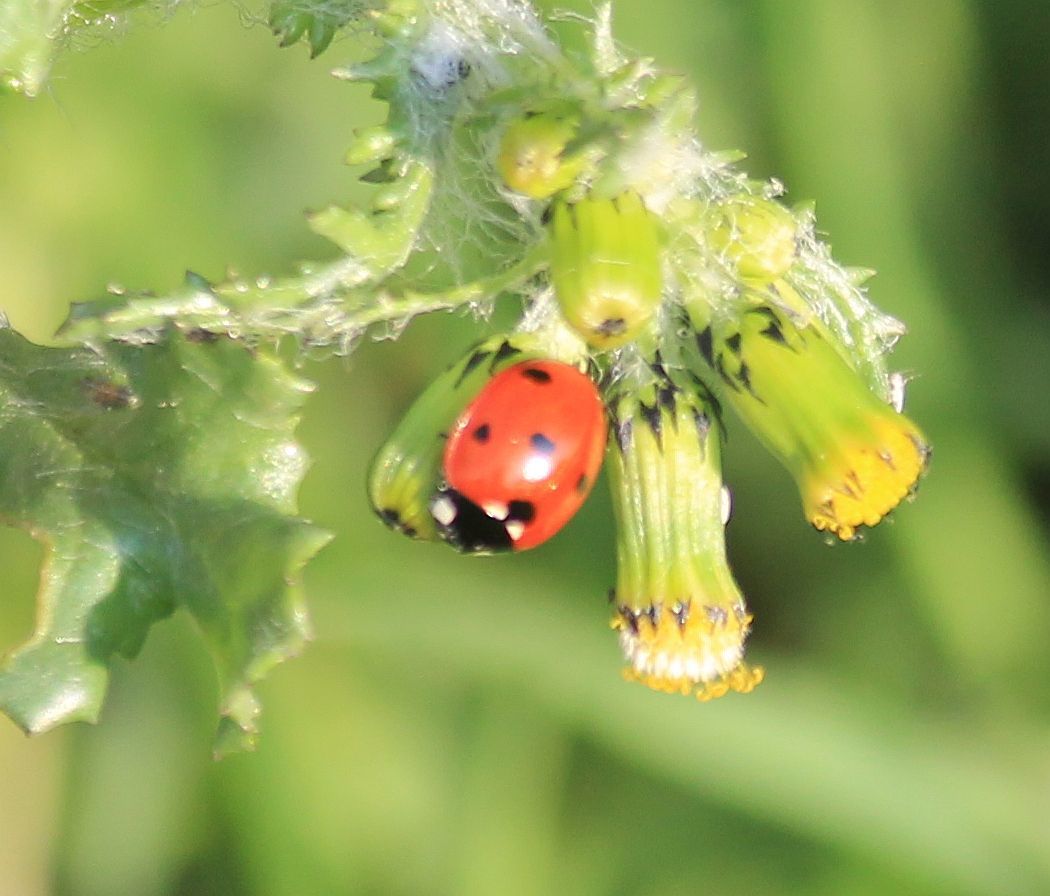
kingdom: Animalia
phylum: Arthropoda
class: Insecta
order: Coleoptera
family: Coccinellidae
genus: Coccinella
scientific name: Coccinella septempunctata
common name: Sevenspotted lady beetle
